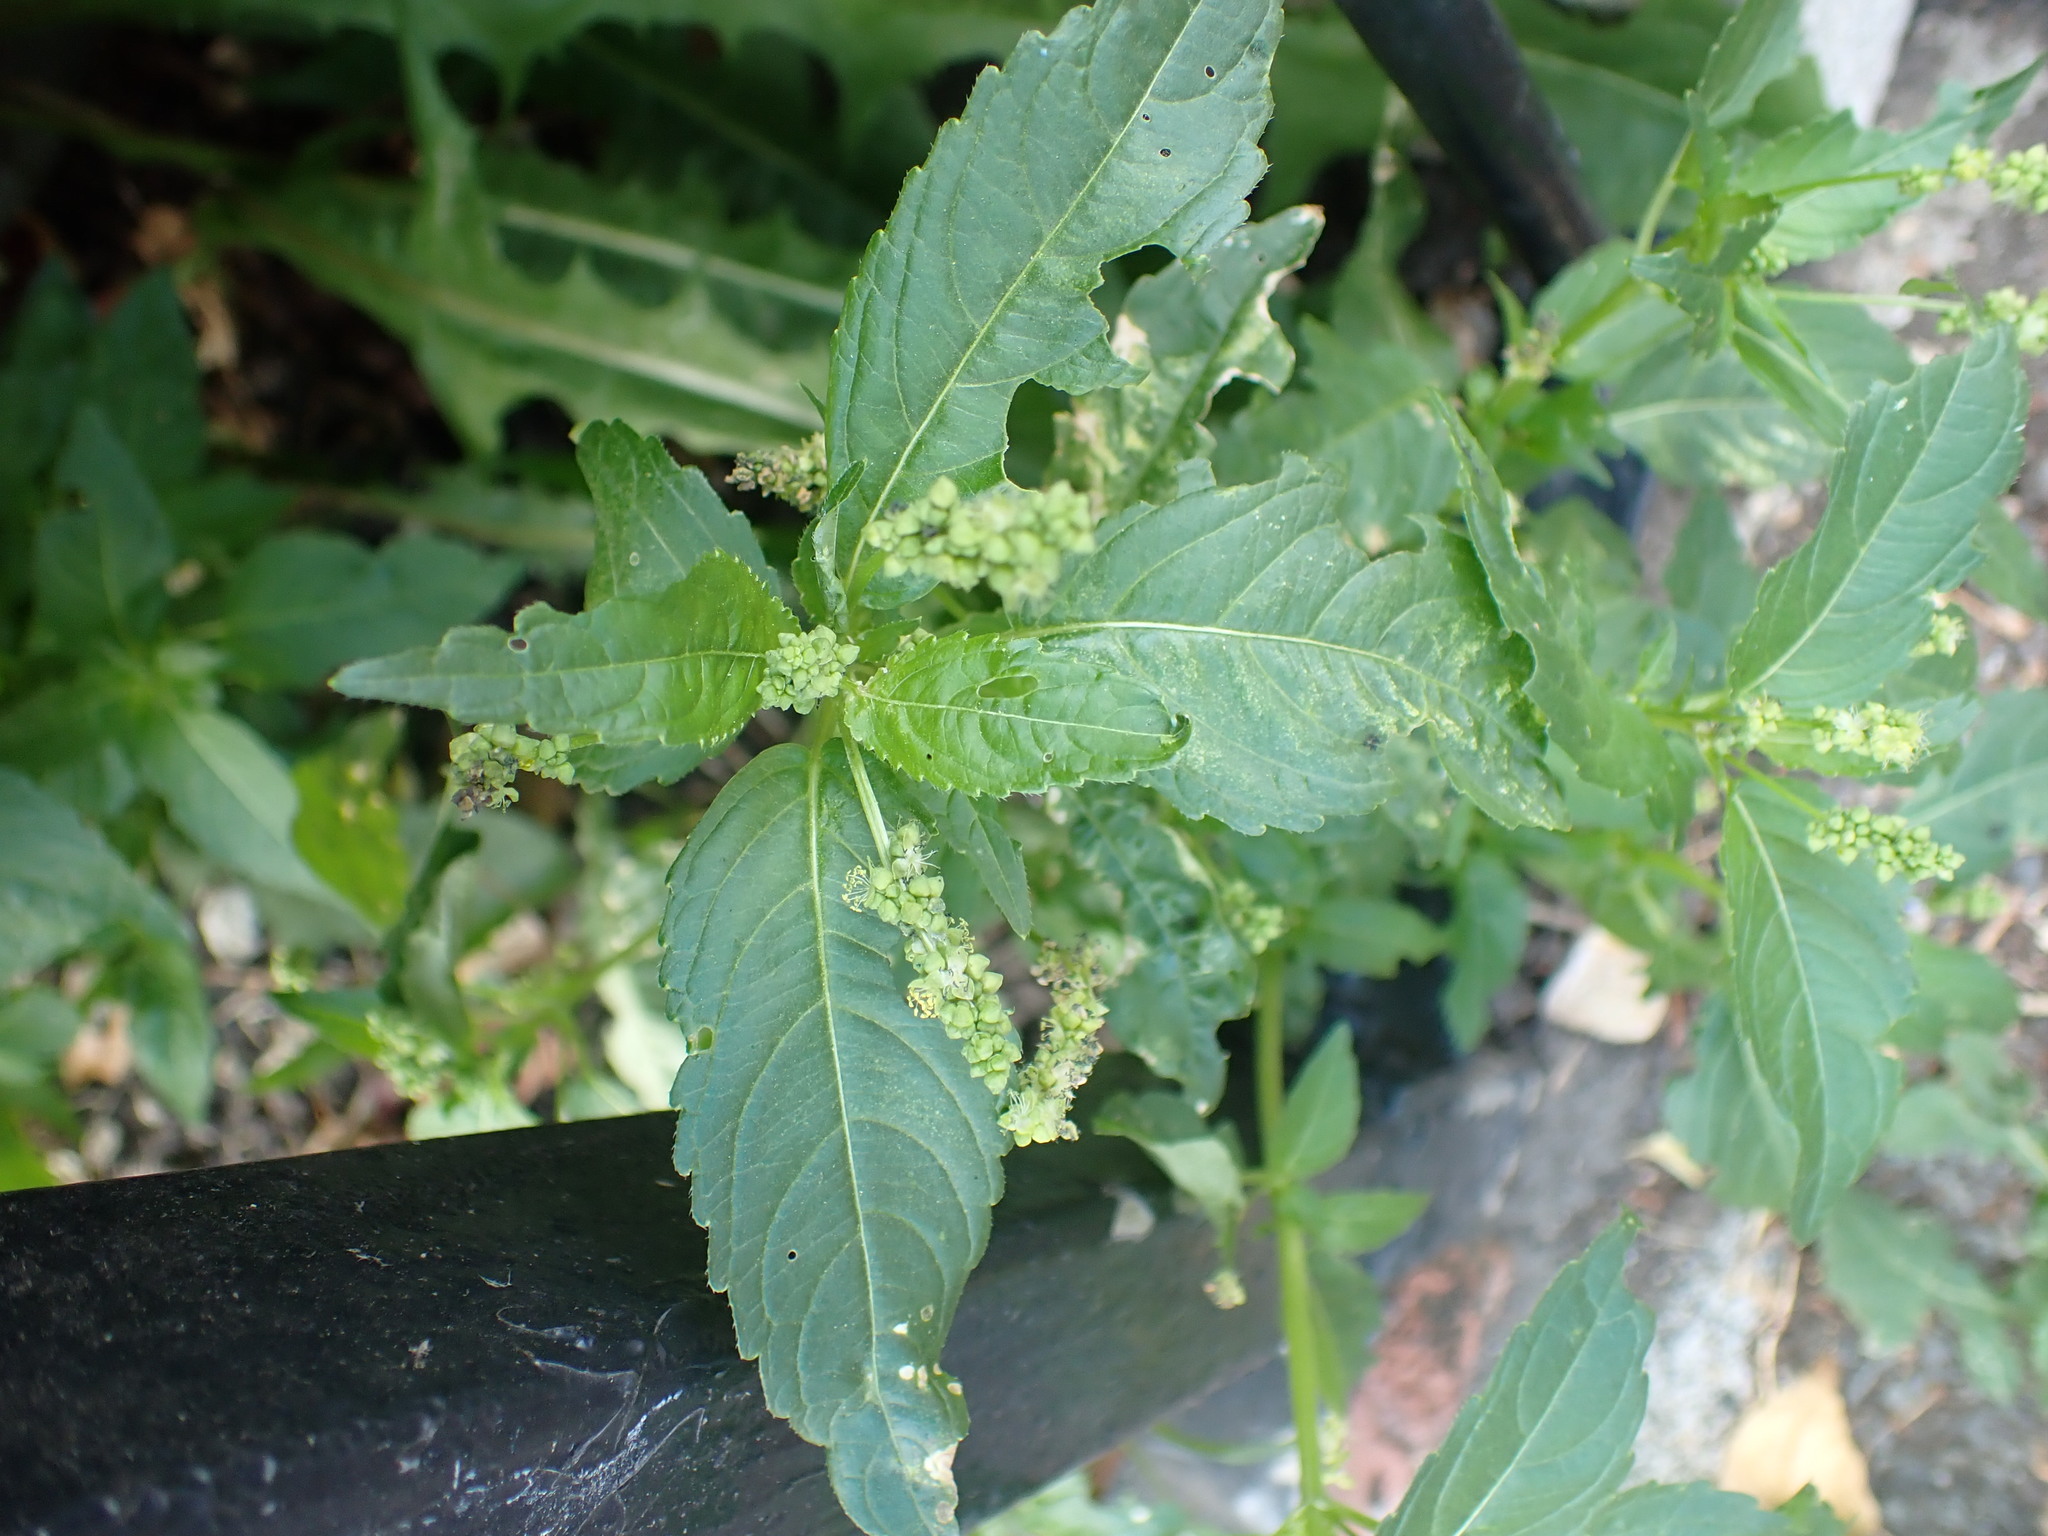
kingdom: Plantae
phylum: Tracheophyta
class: Magnoliopsida
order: Malpighiales
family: Euphorbiaceae
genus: Mercurialis
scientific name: Mercurialis annua
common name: Annual mercury
